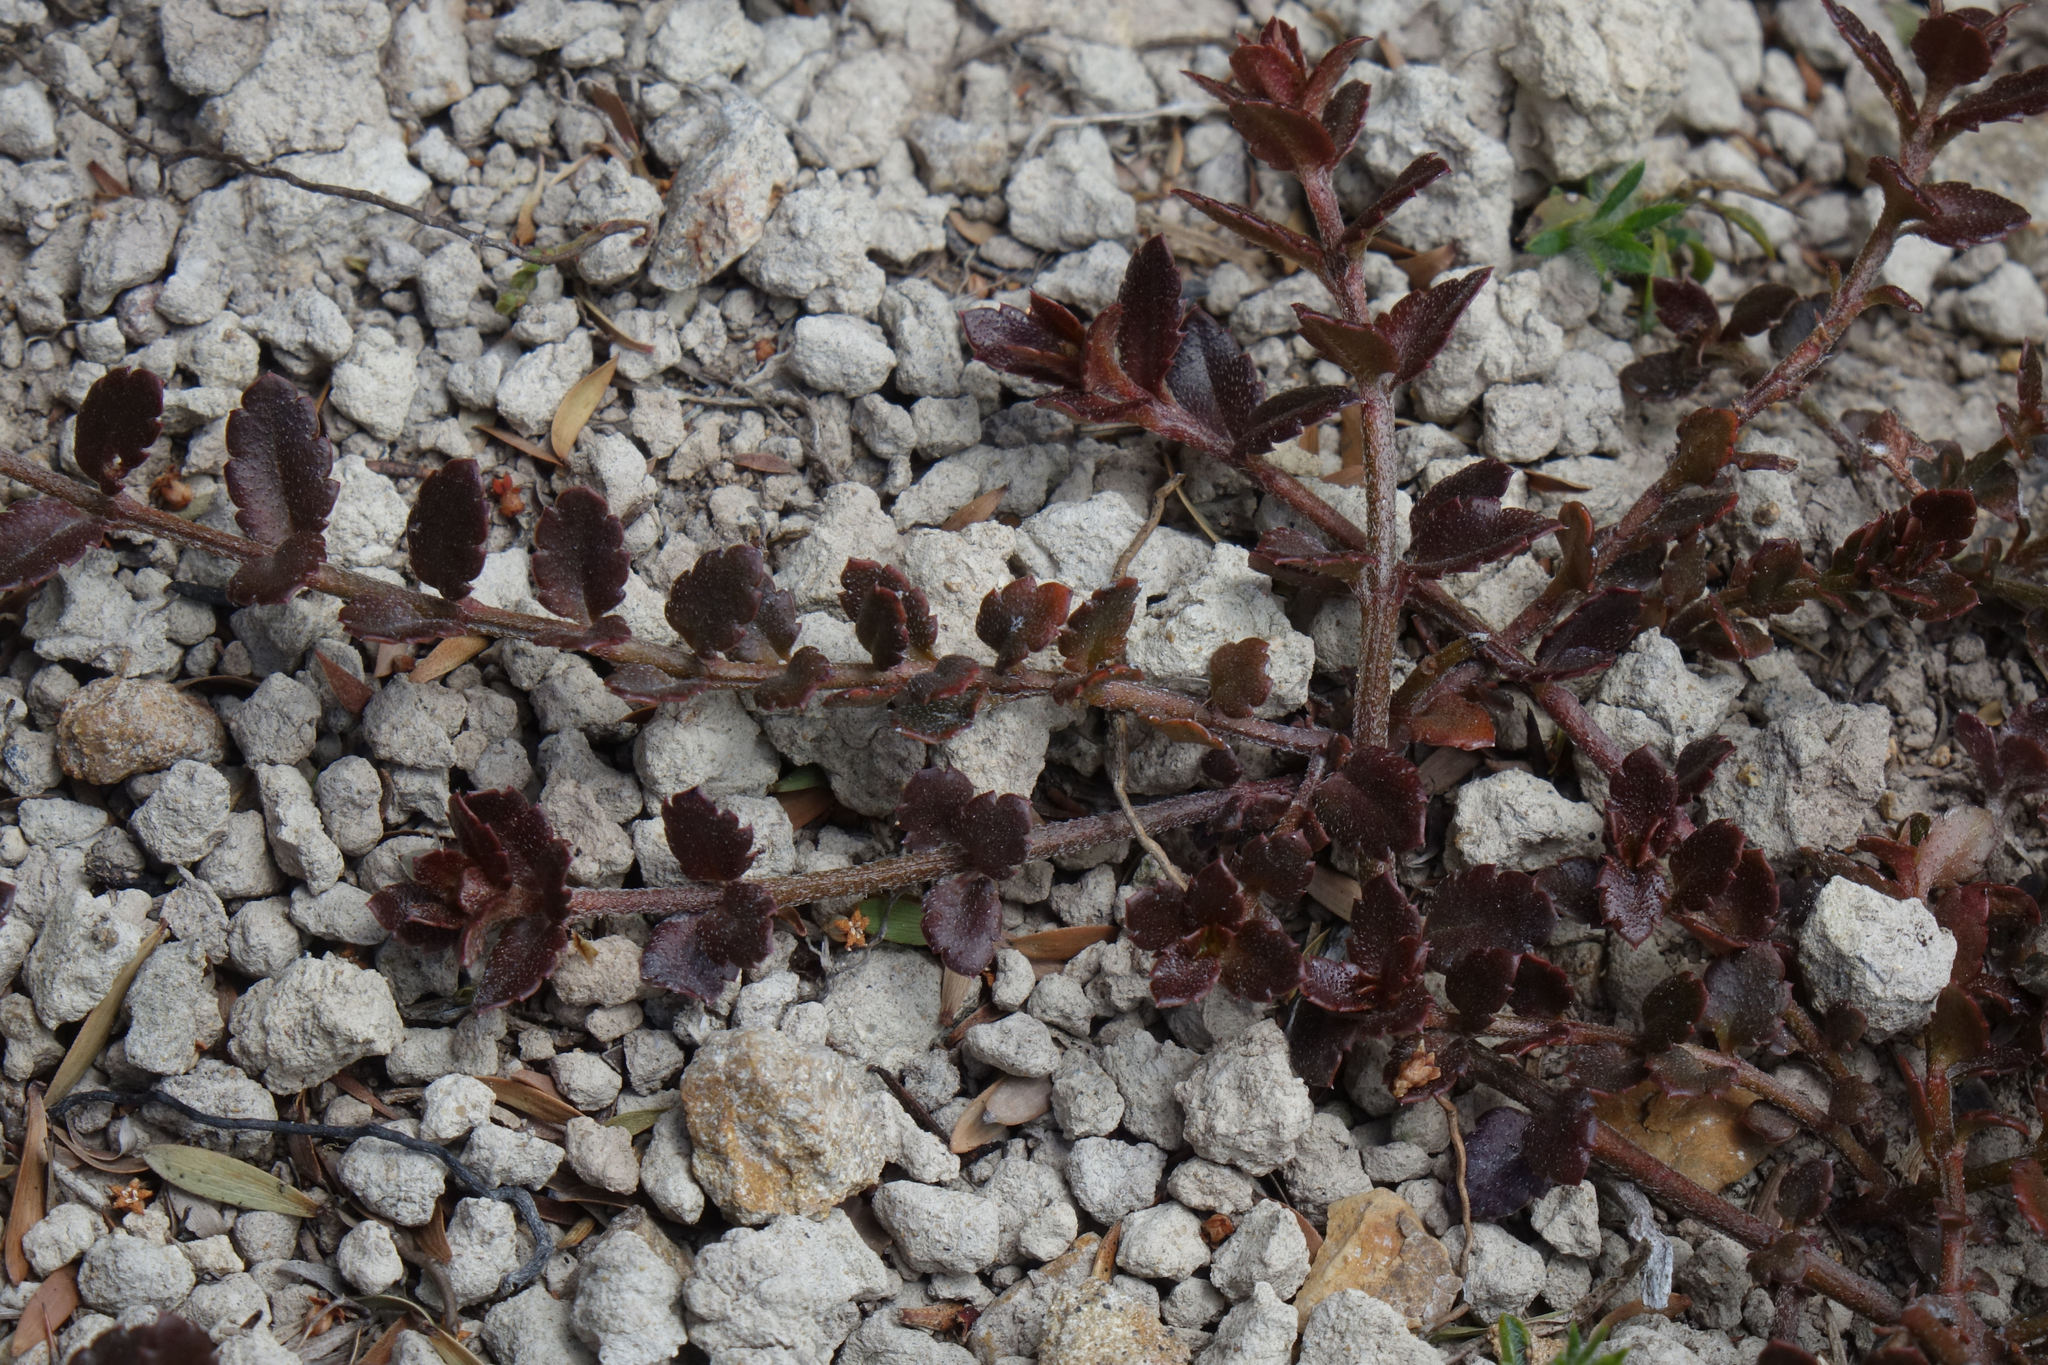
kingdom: Plantae
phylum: Tracheophyta
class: Magnoliopsida
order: Saxifragales
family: Haloragaceae
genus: Gonocarpus
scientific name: Gonocarpus incanus
